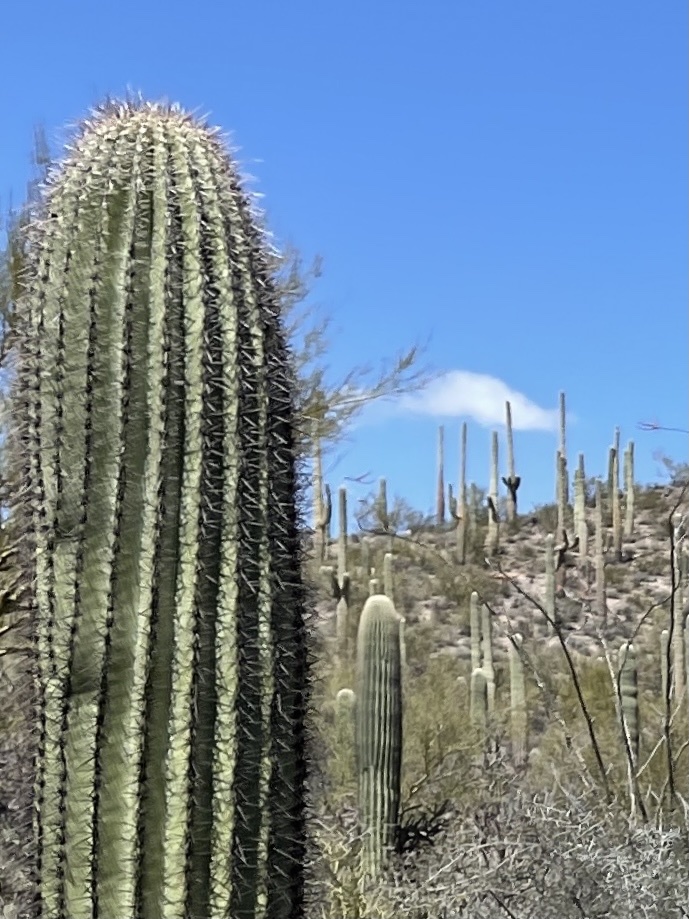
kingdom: Plantae
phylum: Tracheophyta
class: Magnoliopsida
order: Caryophyllales
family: Cactaceae
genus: Carnegiea
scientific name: Carnegiea gigantea
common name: Saguaro
